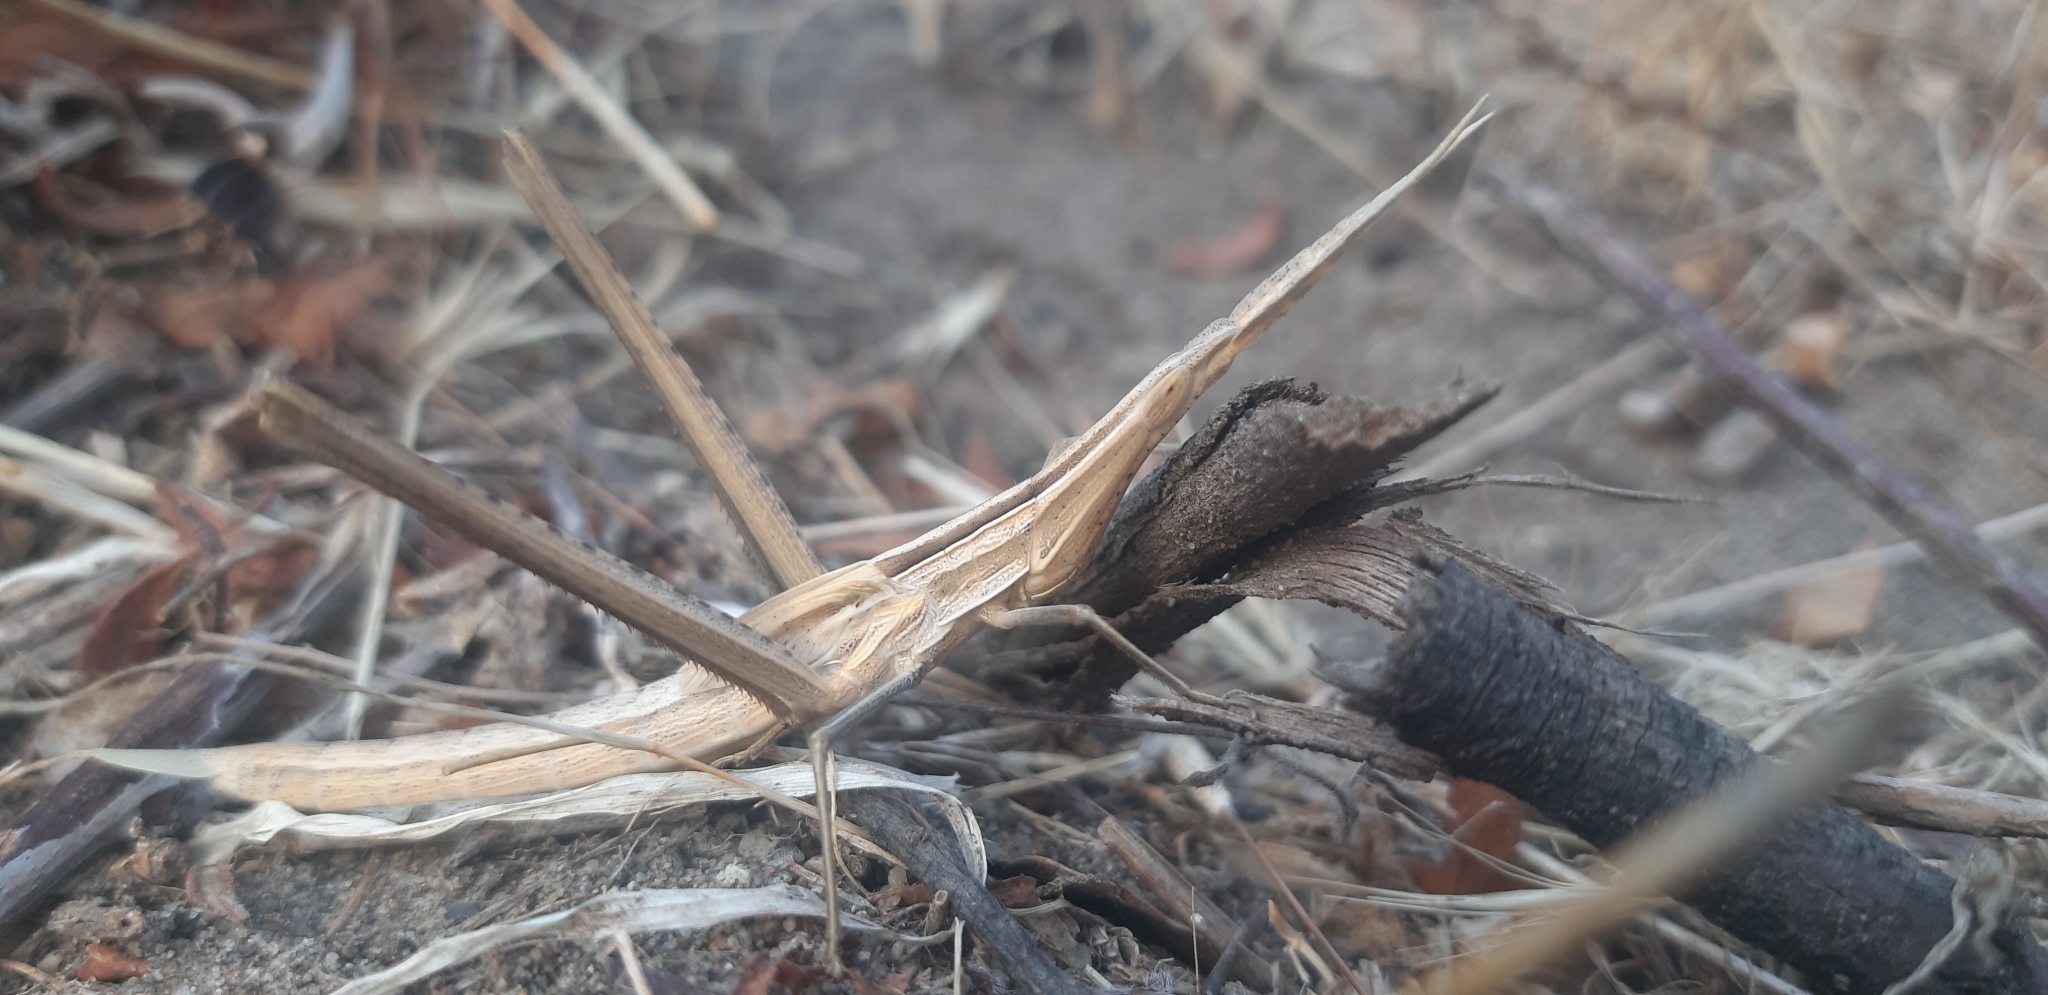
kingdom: Animalia
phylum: Arthropoda
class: Insecta
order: Orthoptera
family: Acrididae
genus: Acrida
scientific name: Acrida ungarica
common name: Common cone-headed grasshopper
